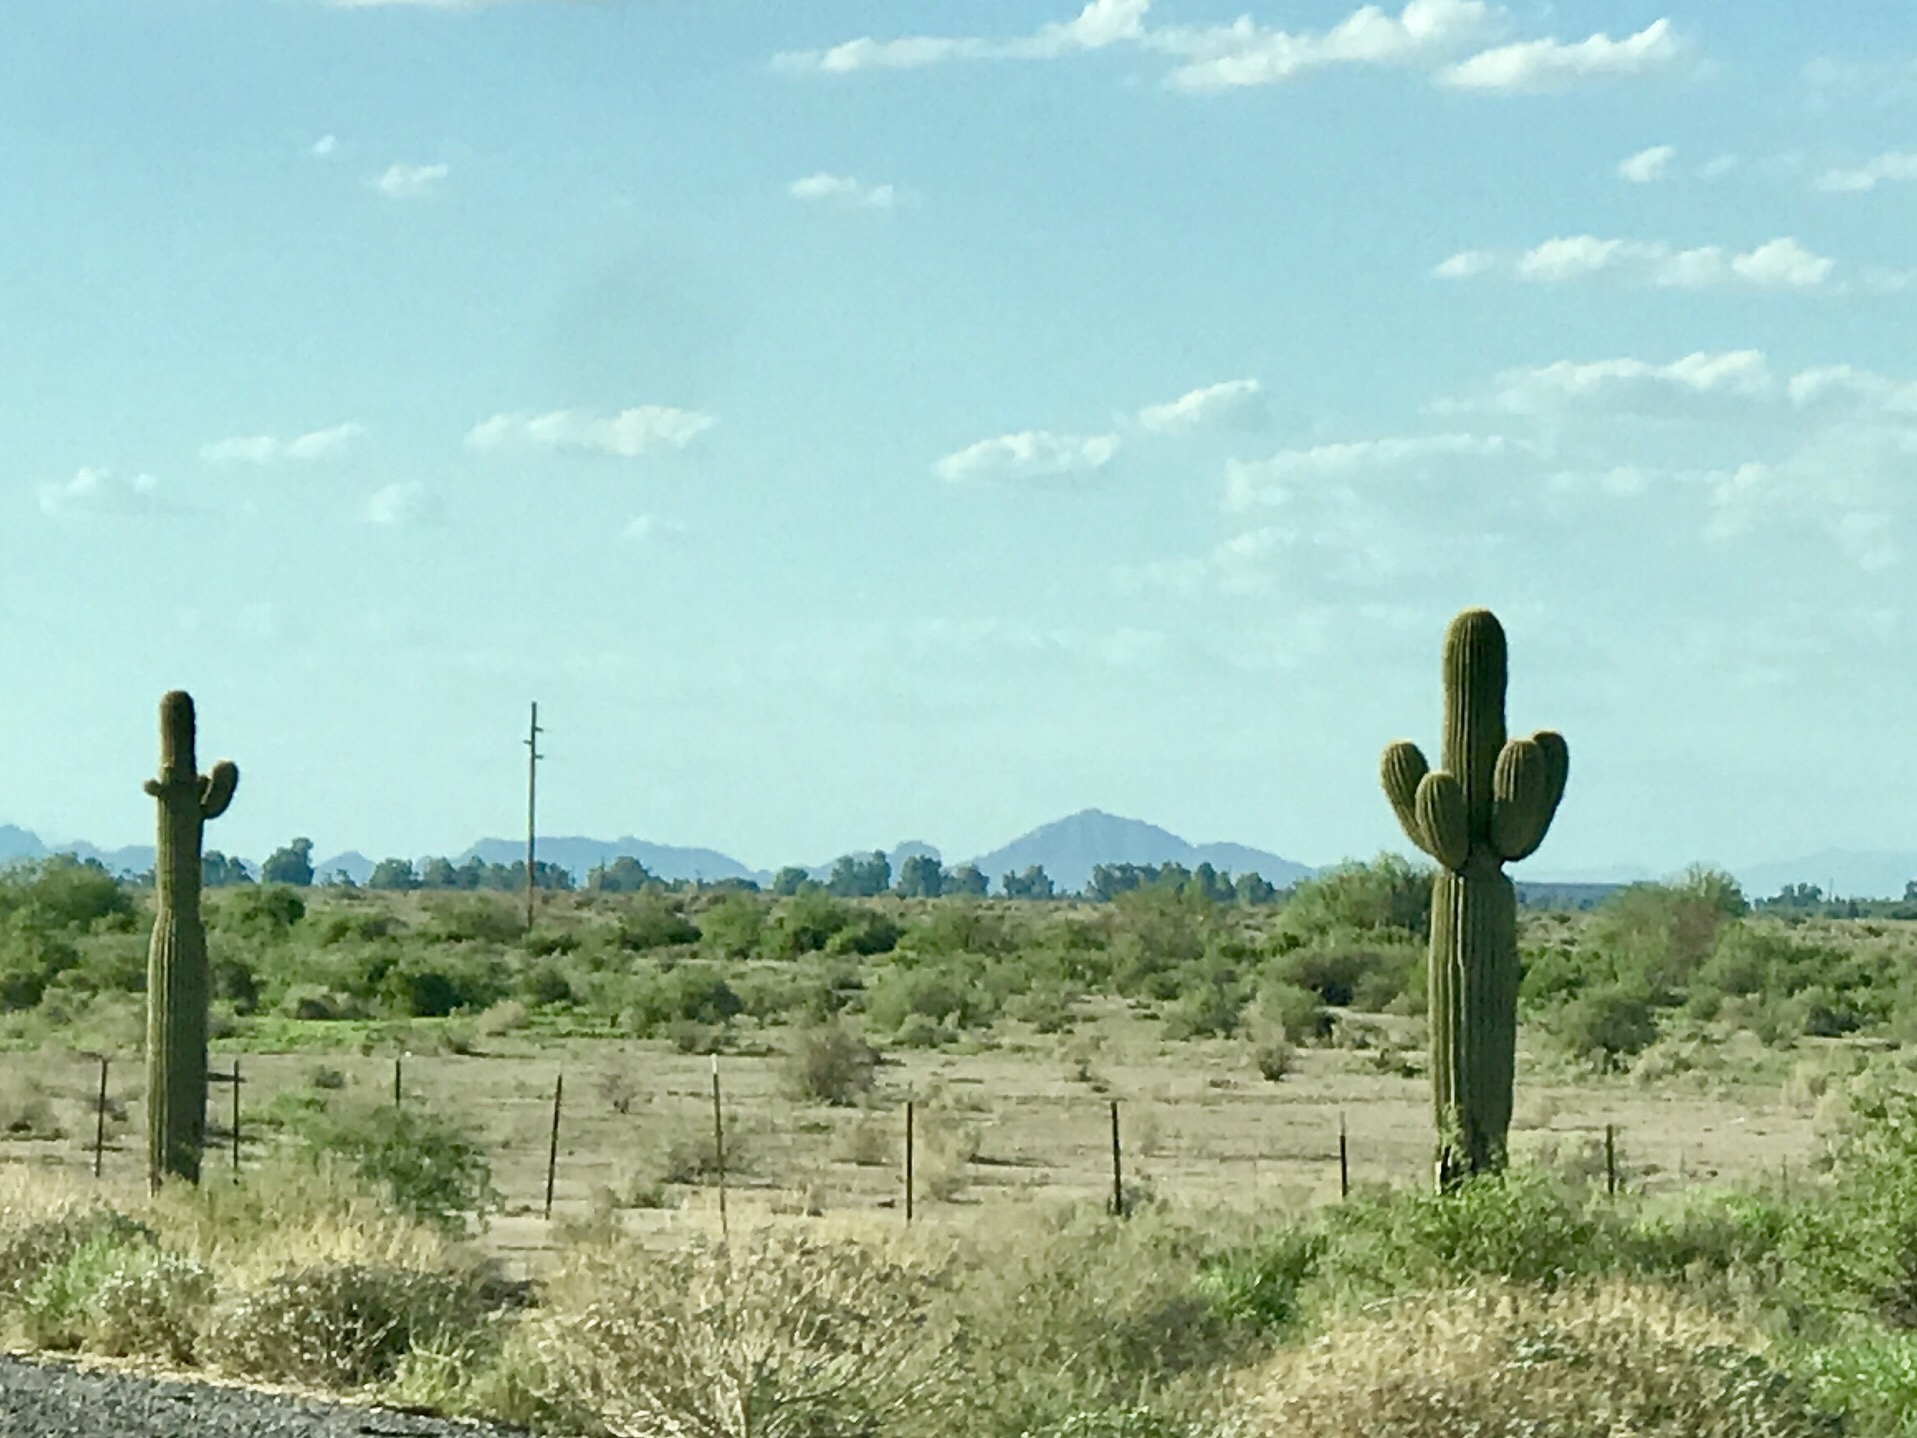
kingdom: Plantae
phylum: Tracheophyta
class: Magnoliopsida
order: Caryophyllales
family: Cactaceae
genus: Carnegiea
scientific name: Carnegiea gigantea
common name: Saguaro
